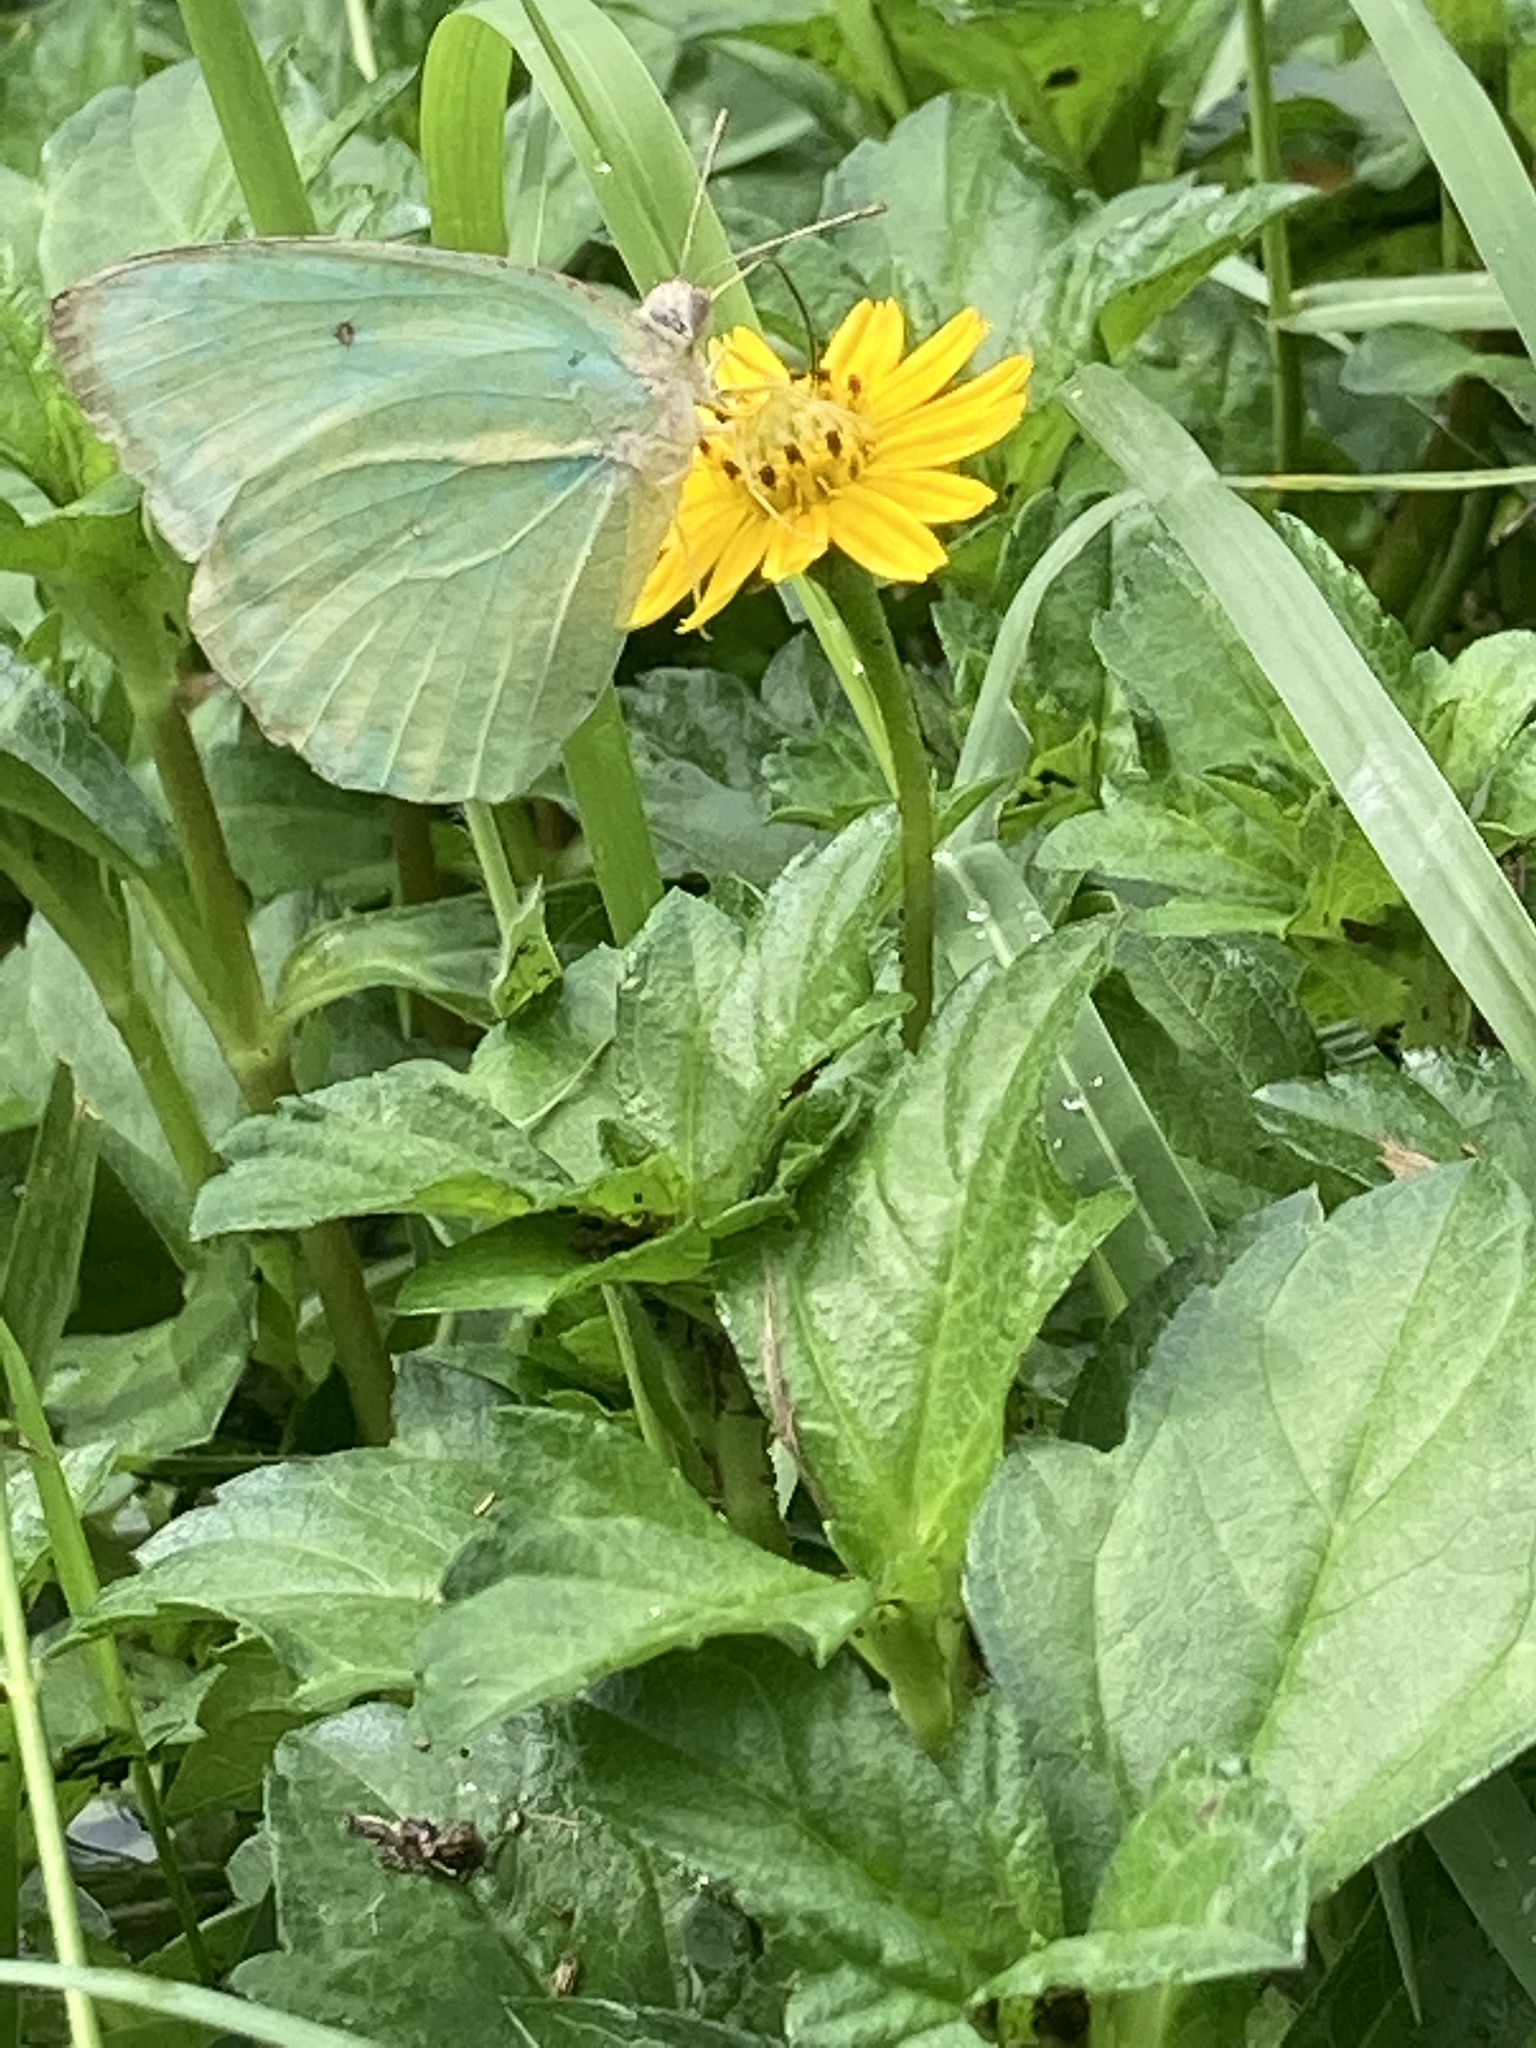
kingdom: Animalia
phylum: Arthropoda
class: Insecta
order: Lepidoptera
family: Pieridae
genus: Catopsilia
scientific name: Catopsilia pyranthe
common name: Mottled emigrant
